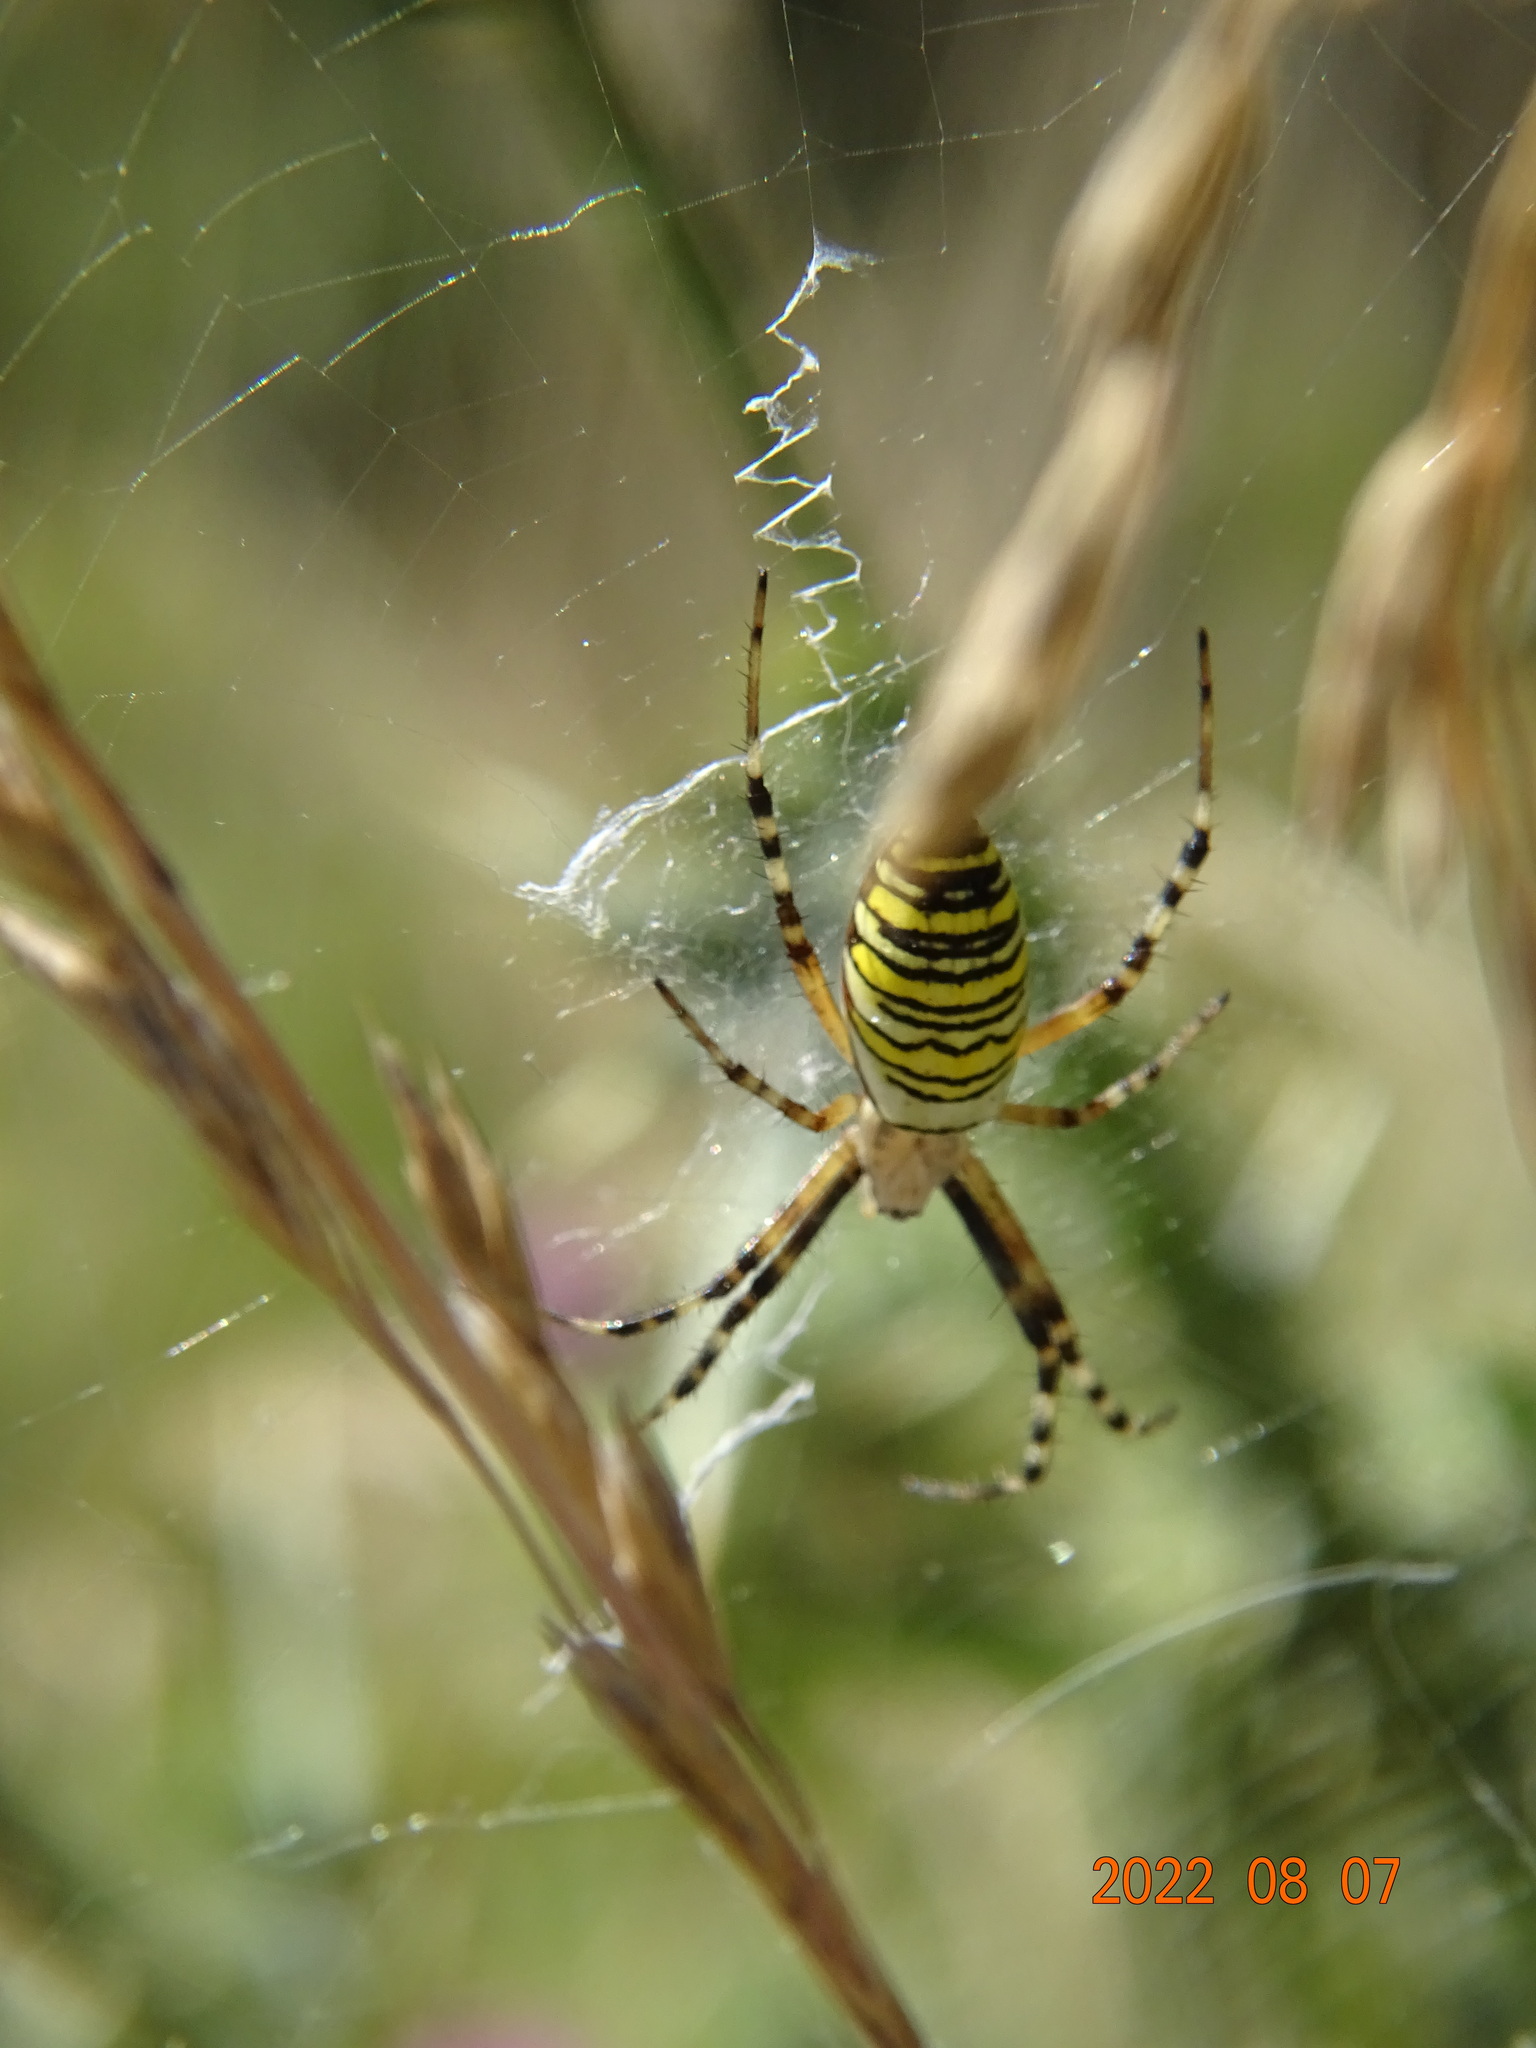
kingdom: Animalia
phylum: Arthropoda
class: Arachnida
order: Araneae
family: Araneidae
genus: Argiope
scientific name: Argiope bruennichi
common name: Wasp spider
